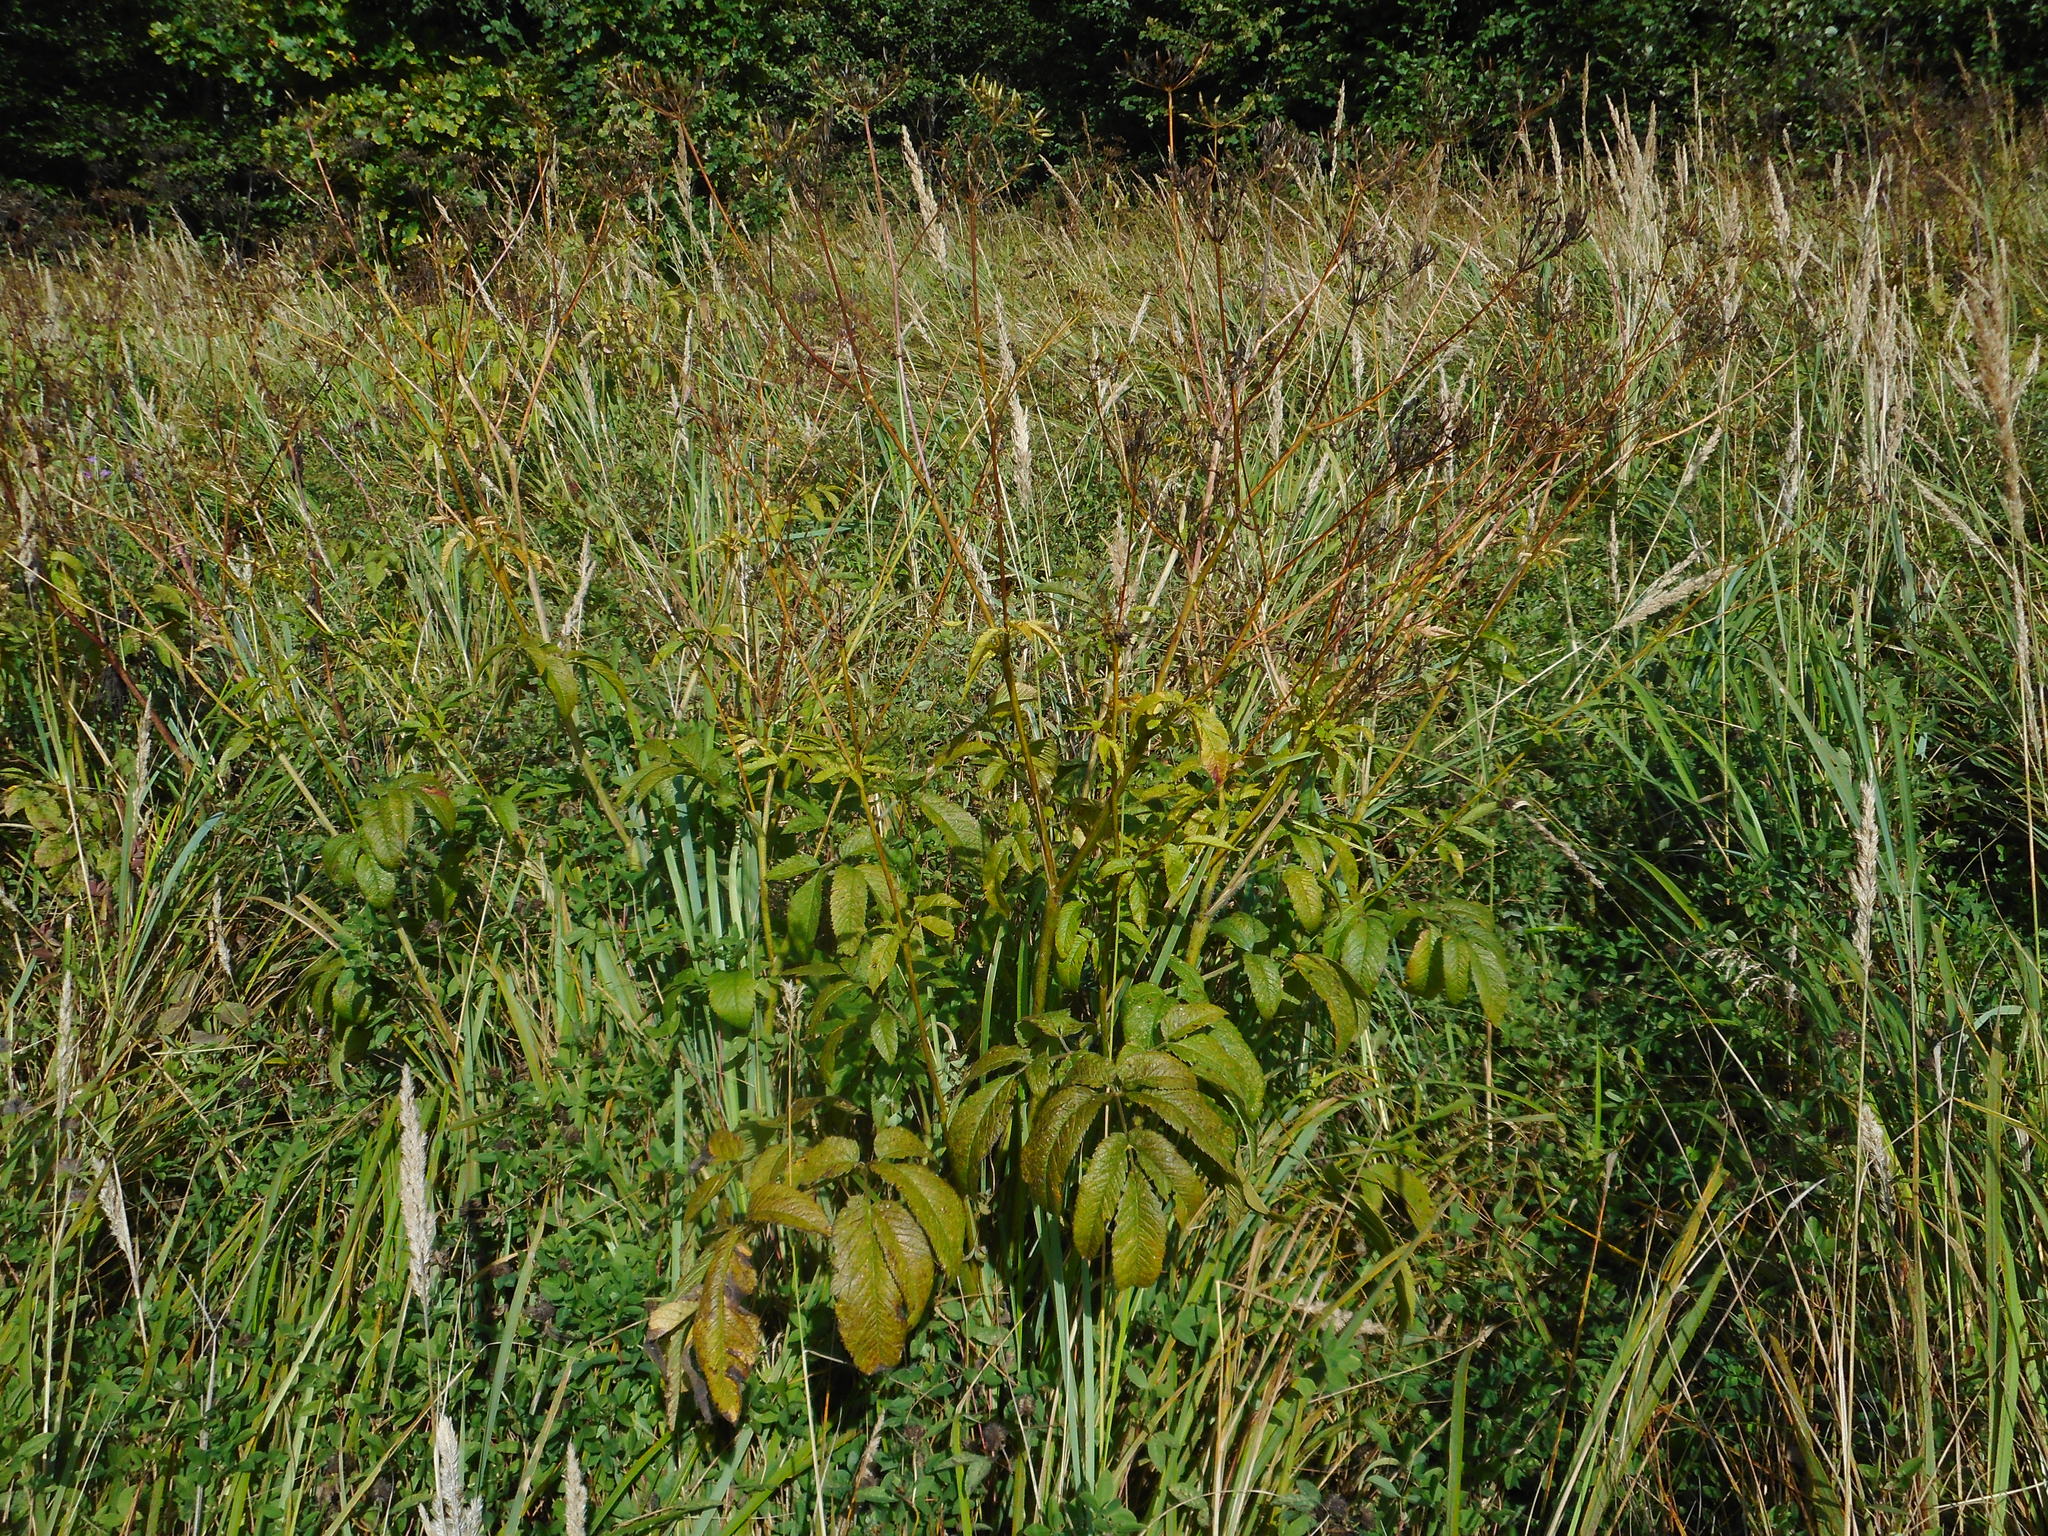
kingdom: Plantae
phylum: Tracheophyta
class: Magnoliopsida
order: Apiales
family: Apiaceae
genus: Chaerophyllum
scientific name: Chaerophyllum aromaticum
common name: Broadleaf chervil
